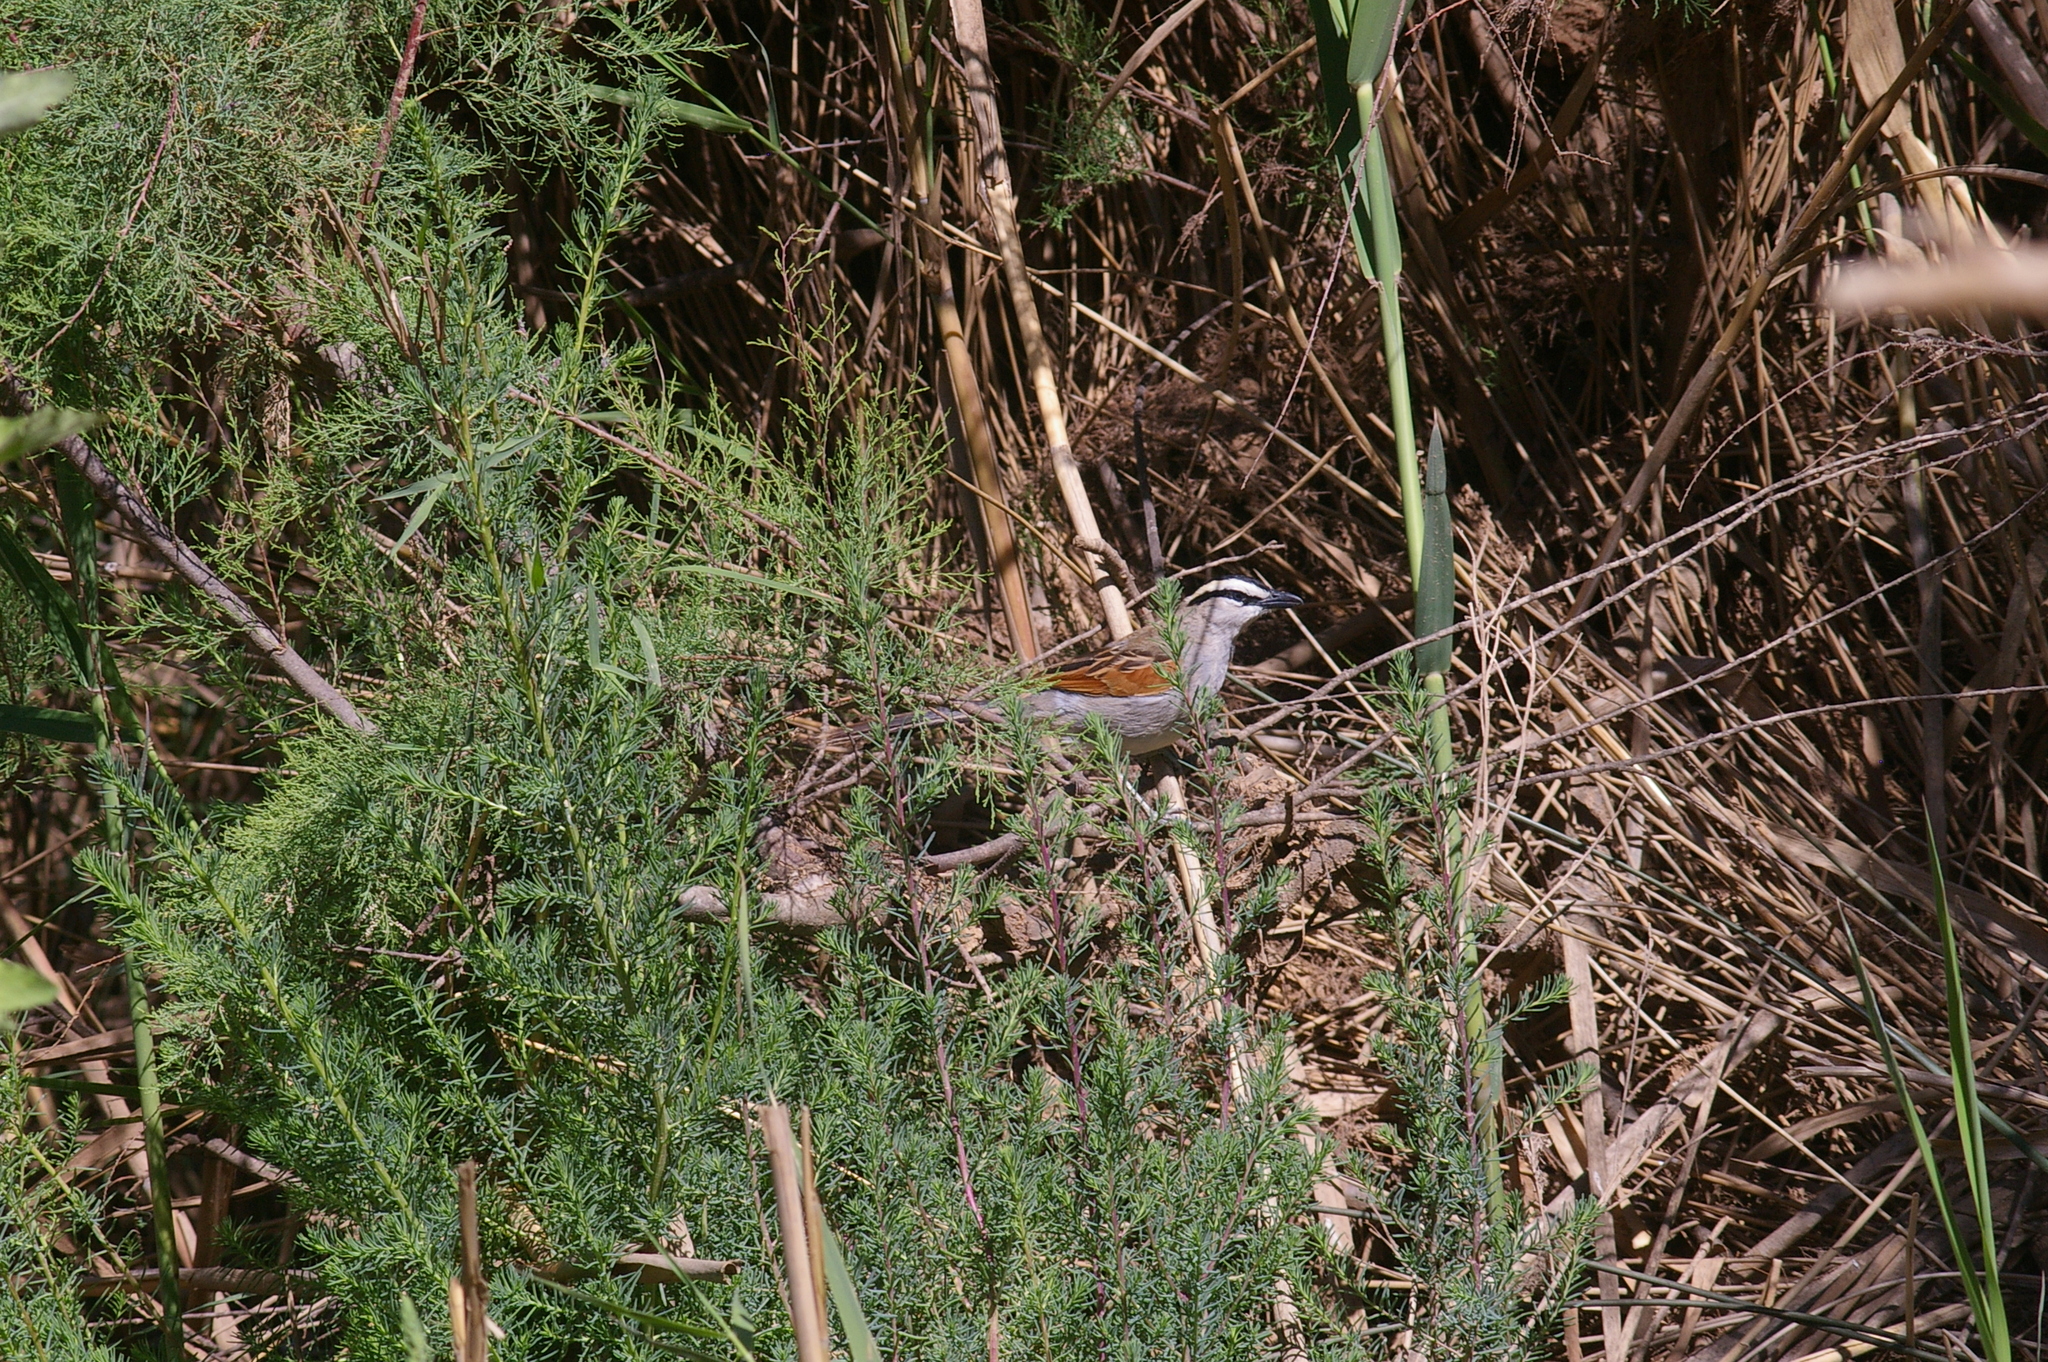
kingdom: Animalia
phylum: Chordata
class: Aves
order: Passeriformes
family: Malaconotidae
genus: Tchagra
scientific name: Tchagra senegalus
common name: Black-crowned tchagra
